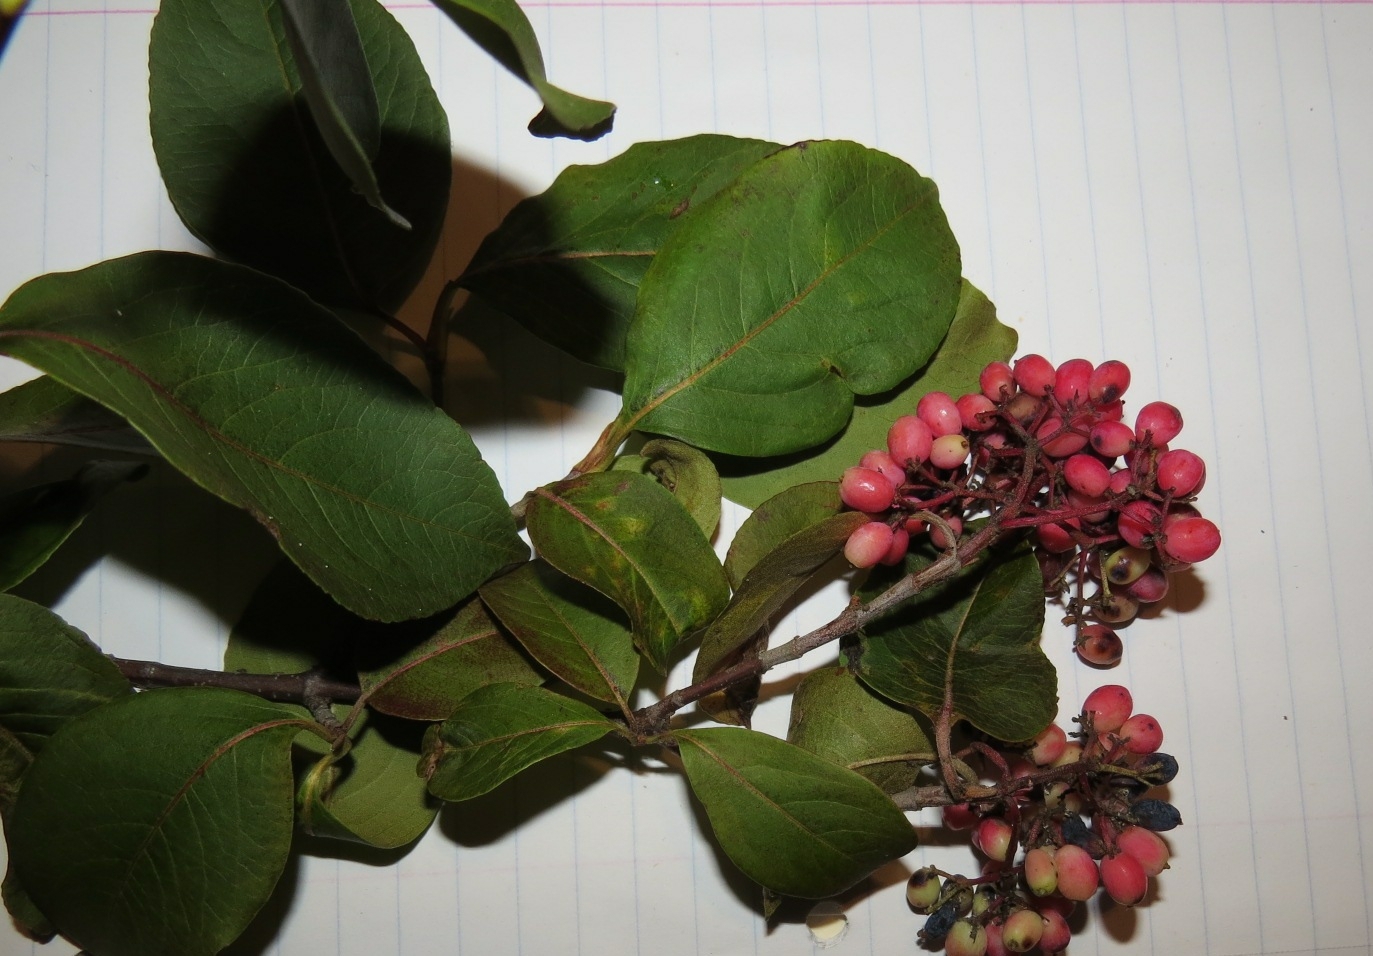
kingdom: Plantae
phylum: Tracheophyta
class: Magnoliopsida
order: Dipsacales
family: Viburnaceae
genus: Viburnum
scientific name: Viburnum cassinoides
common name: Swamp haw
